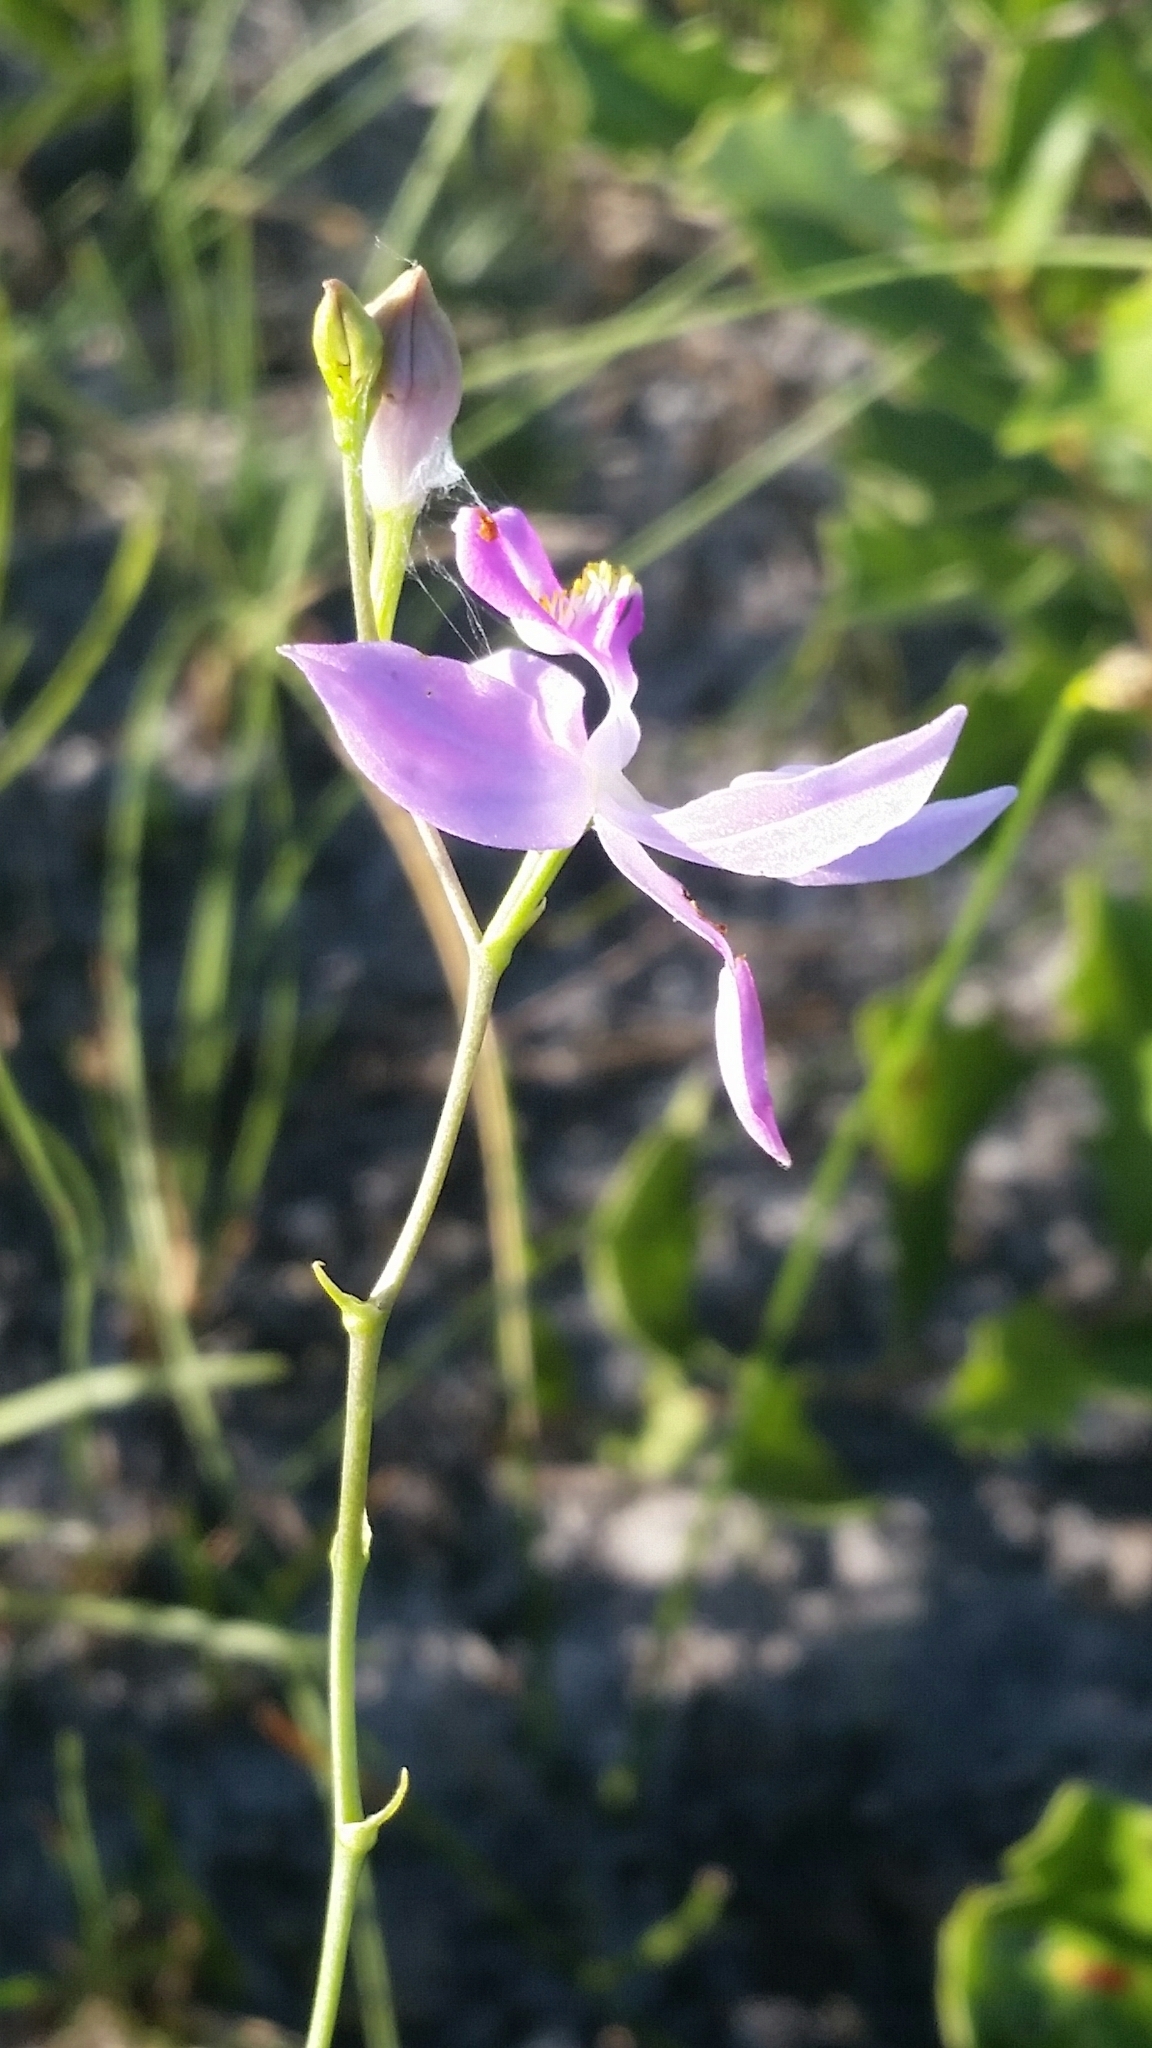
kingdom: Plantae
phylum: Tracheophyta
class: Liliopsida
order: Asparagales
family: Orchidaceae
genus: Calopogon
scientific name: Calopogon pallidus
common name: Pale grasspink
